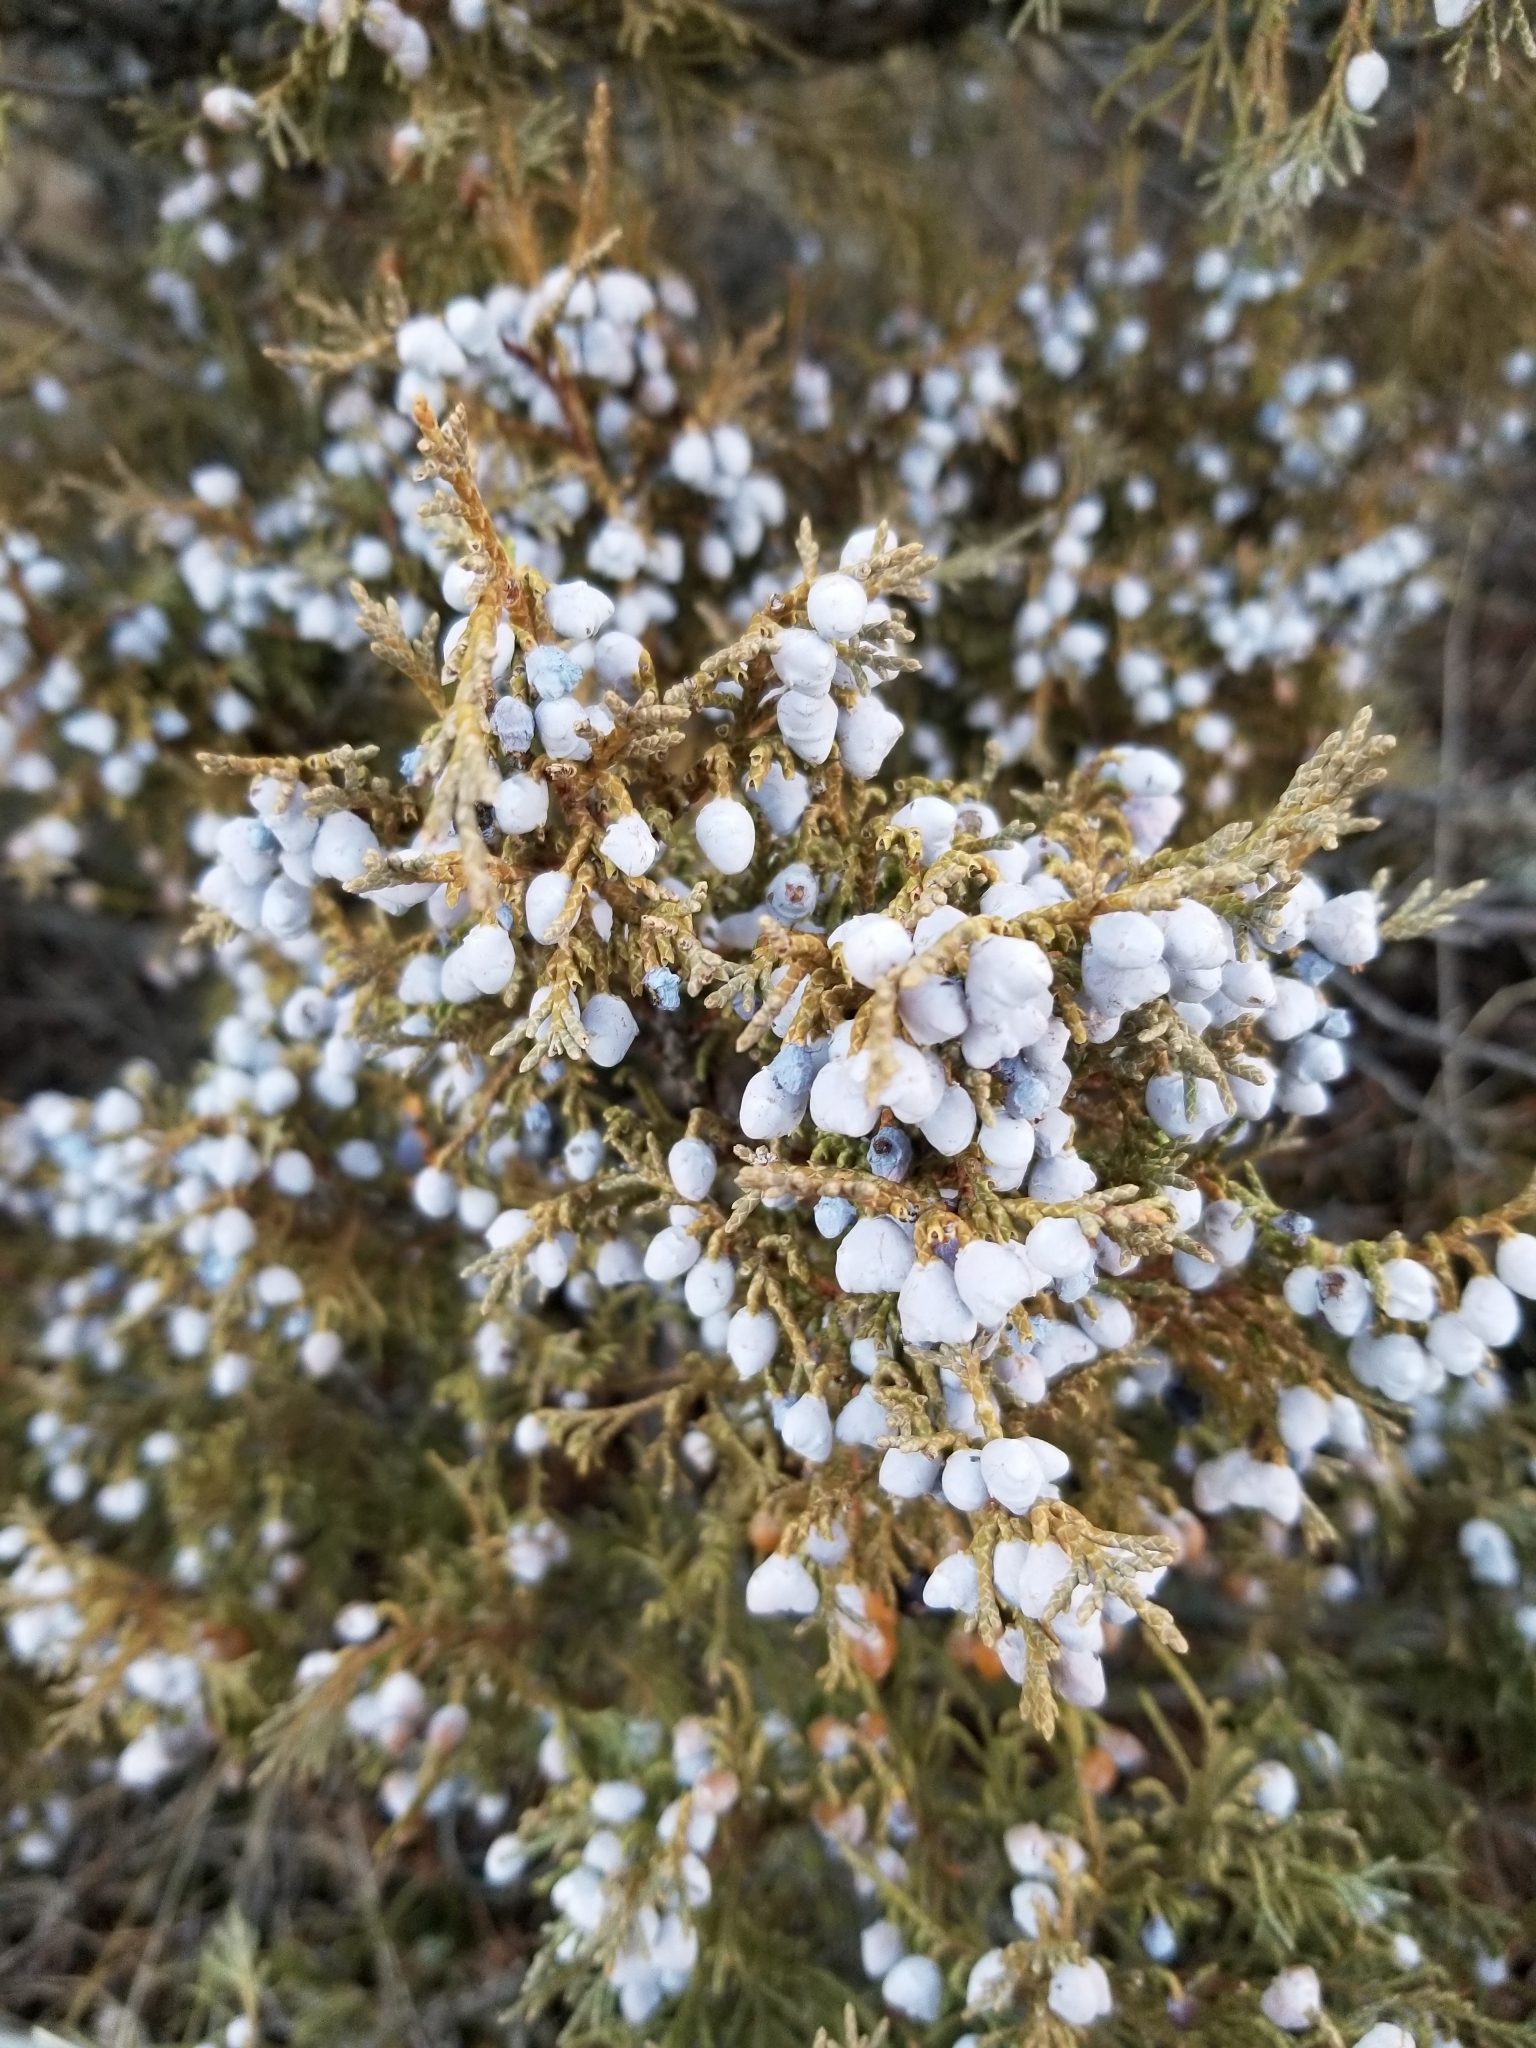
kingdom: Plantae
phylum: Tracheophyta
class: Pinopsida
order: Pinales
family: Cupressaceae
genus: Juniperus
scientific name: Juniperus scopulorum
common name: Rocky mountain juniper
